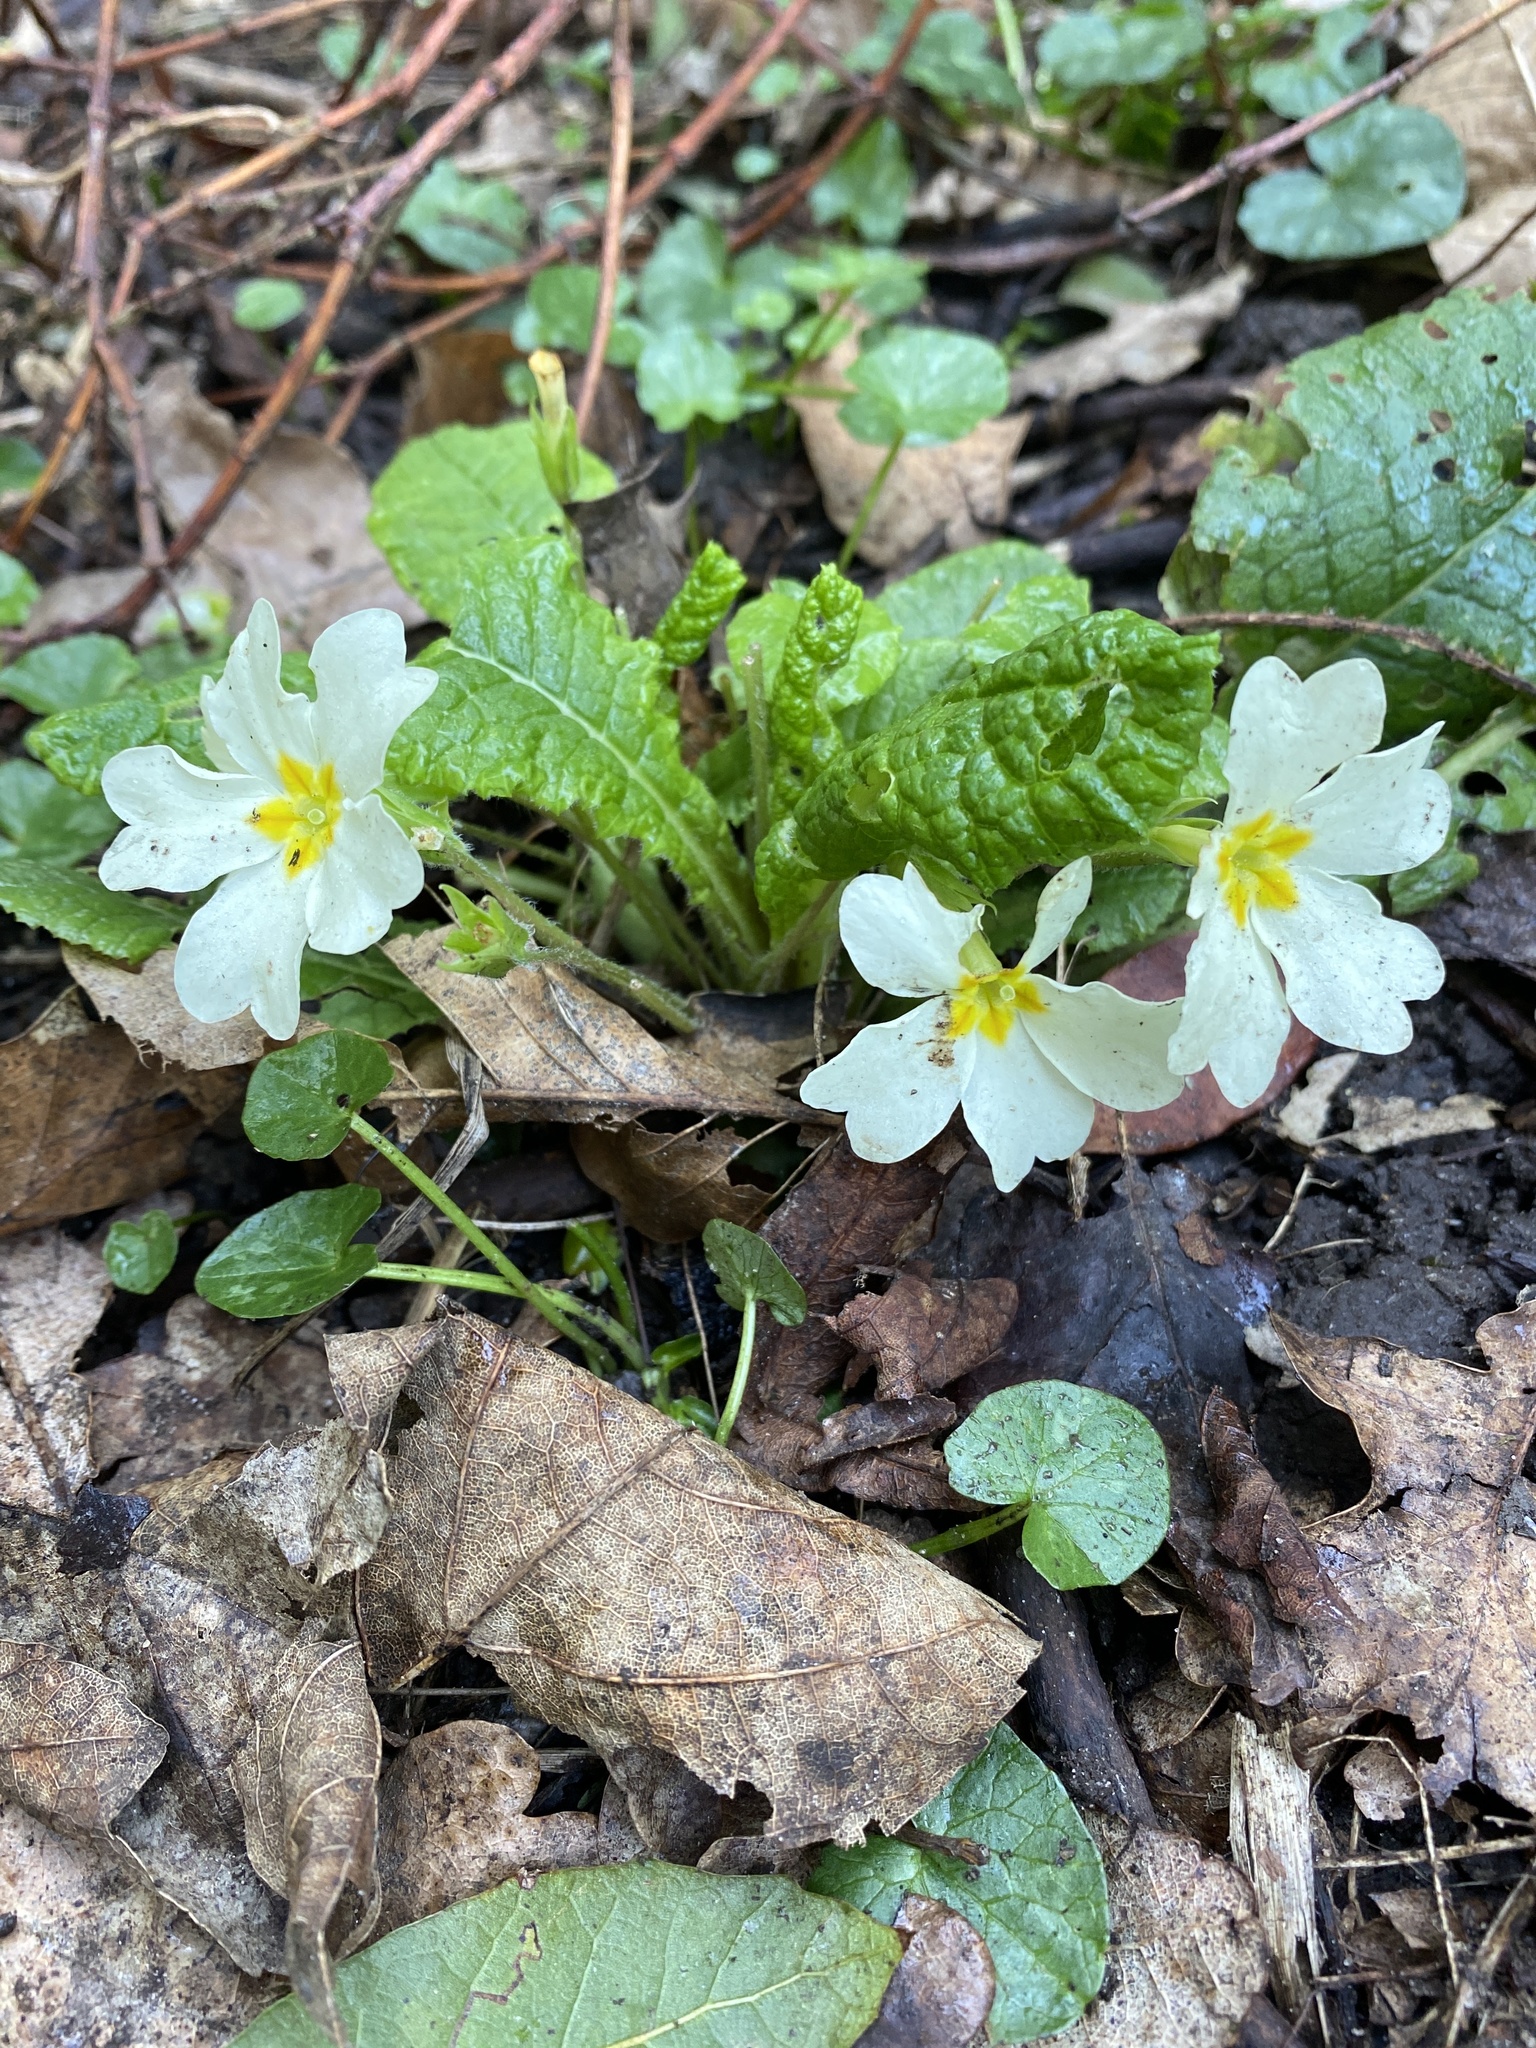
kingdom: Plantae
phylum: Tracheophyta
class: Magnoliopsida
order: Ericales
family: Primulaceae
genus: Primula
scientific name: Primula vulgaris
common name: Primrose
